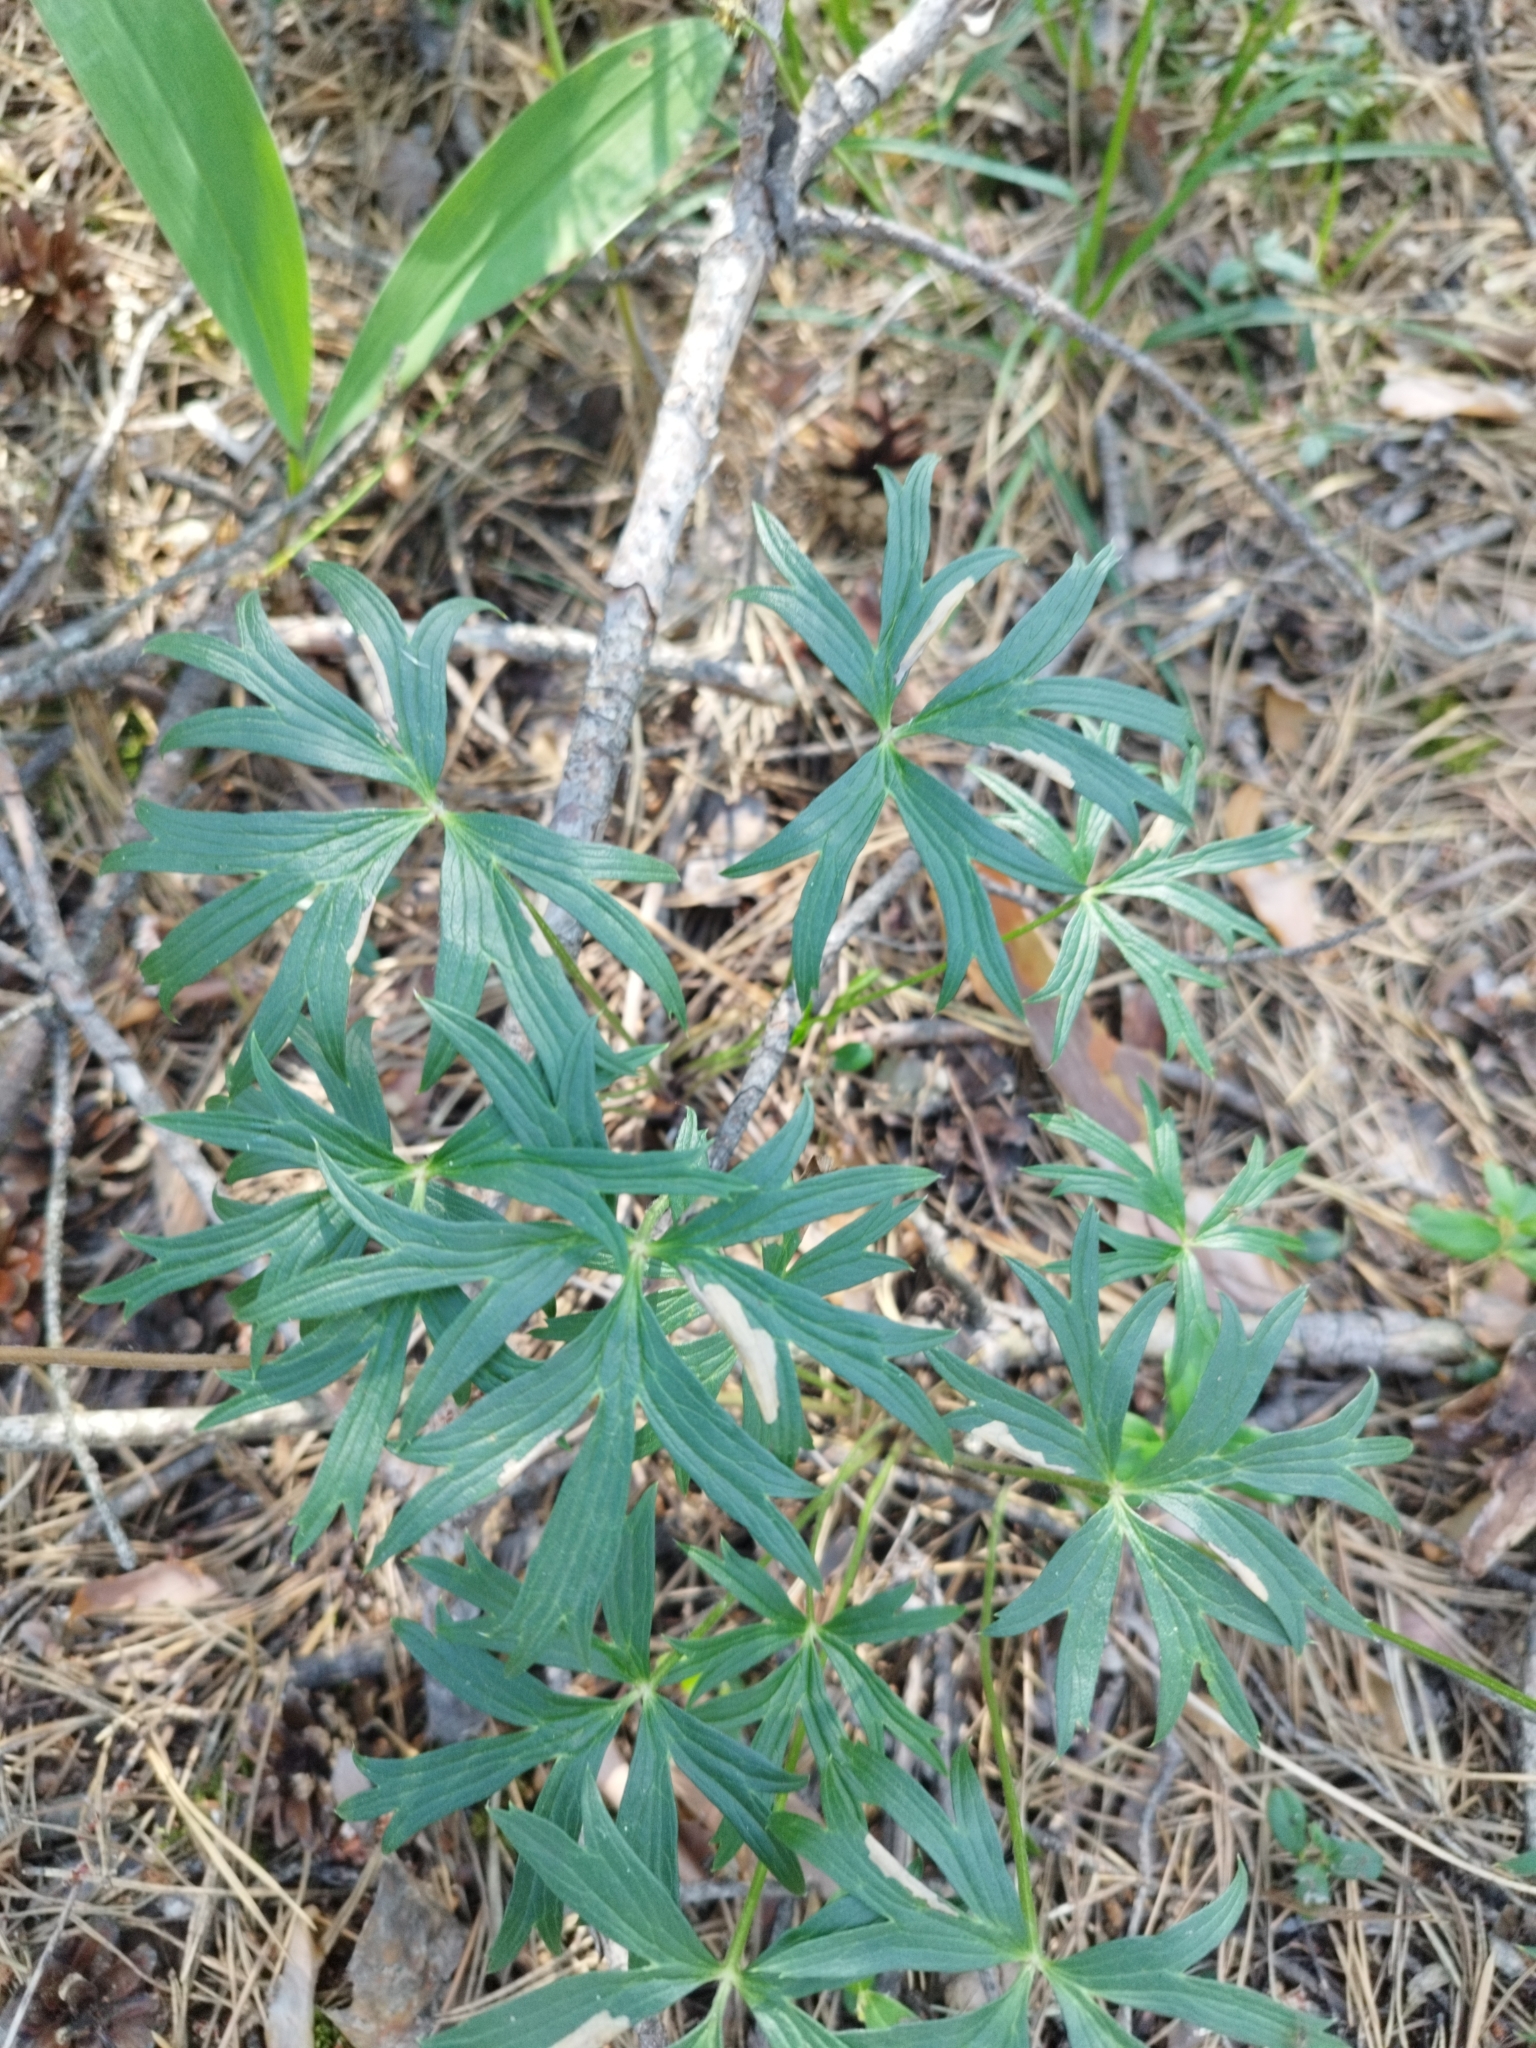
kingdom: Plantae
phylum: Tracheophyta
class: Magnoliopsida
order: Ranunculales
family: Ranunculaceae
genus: Pulsatilla
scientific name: Pulsatilla patens
